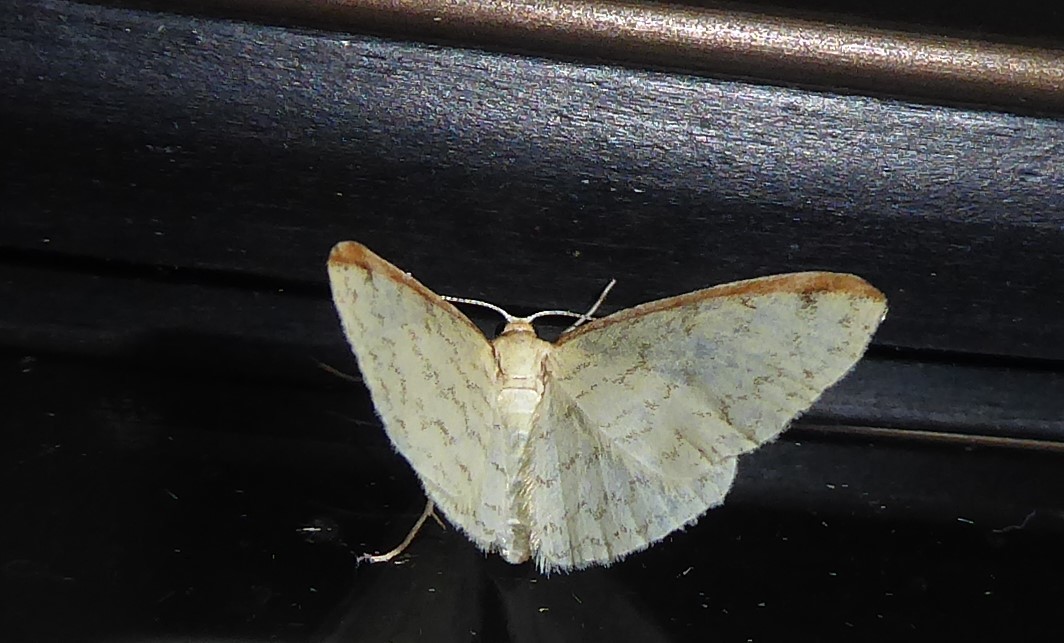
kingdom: Animalia
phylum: Arthropoda
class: Insecta
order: Lepidoptera
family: Geometridae
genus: Epiphryne
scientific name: Epiphryne undosata
